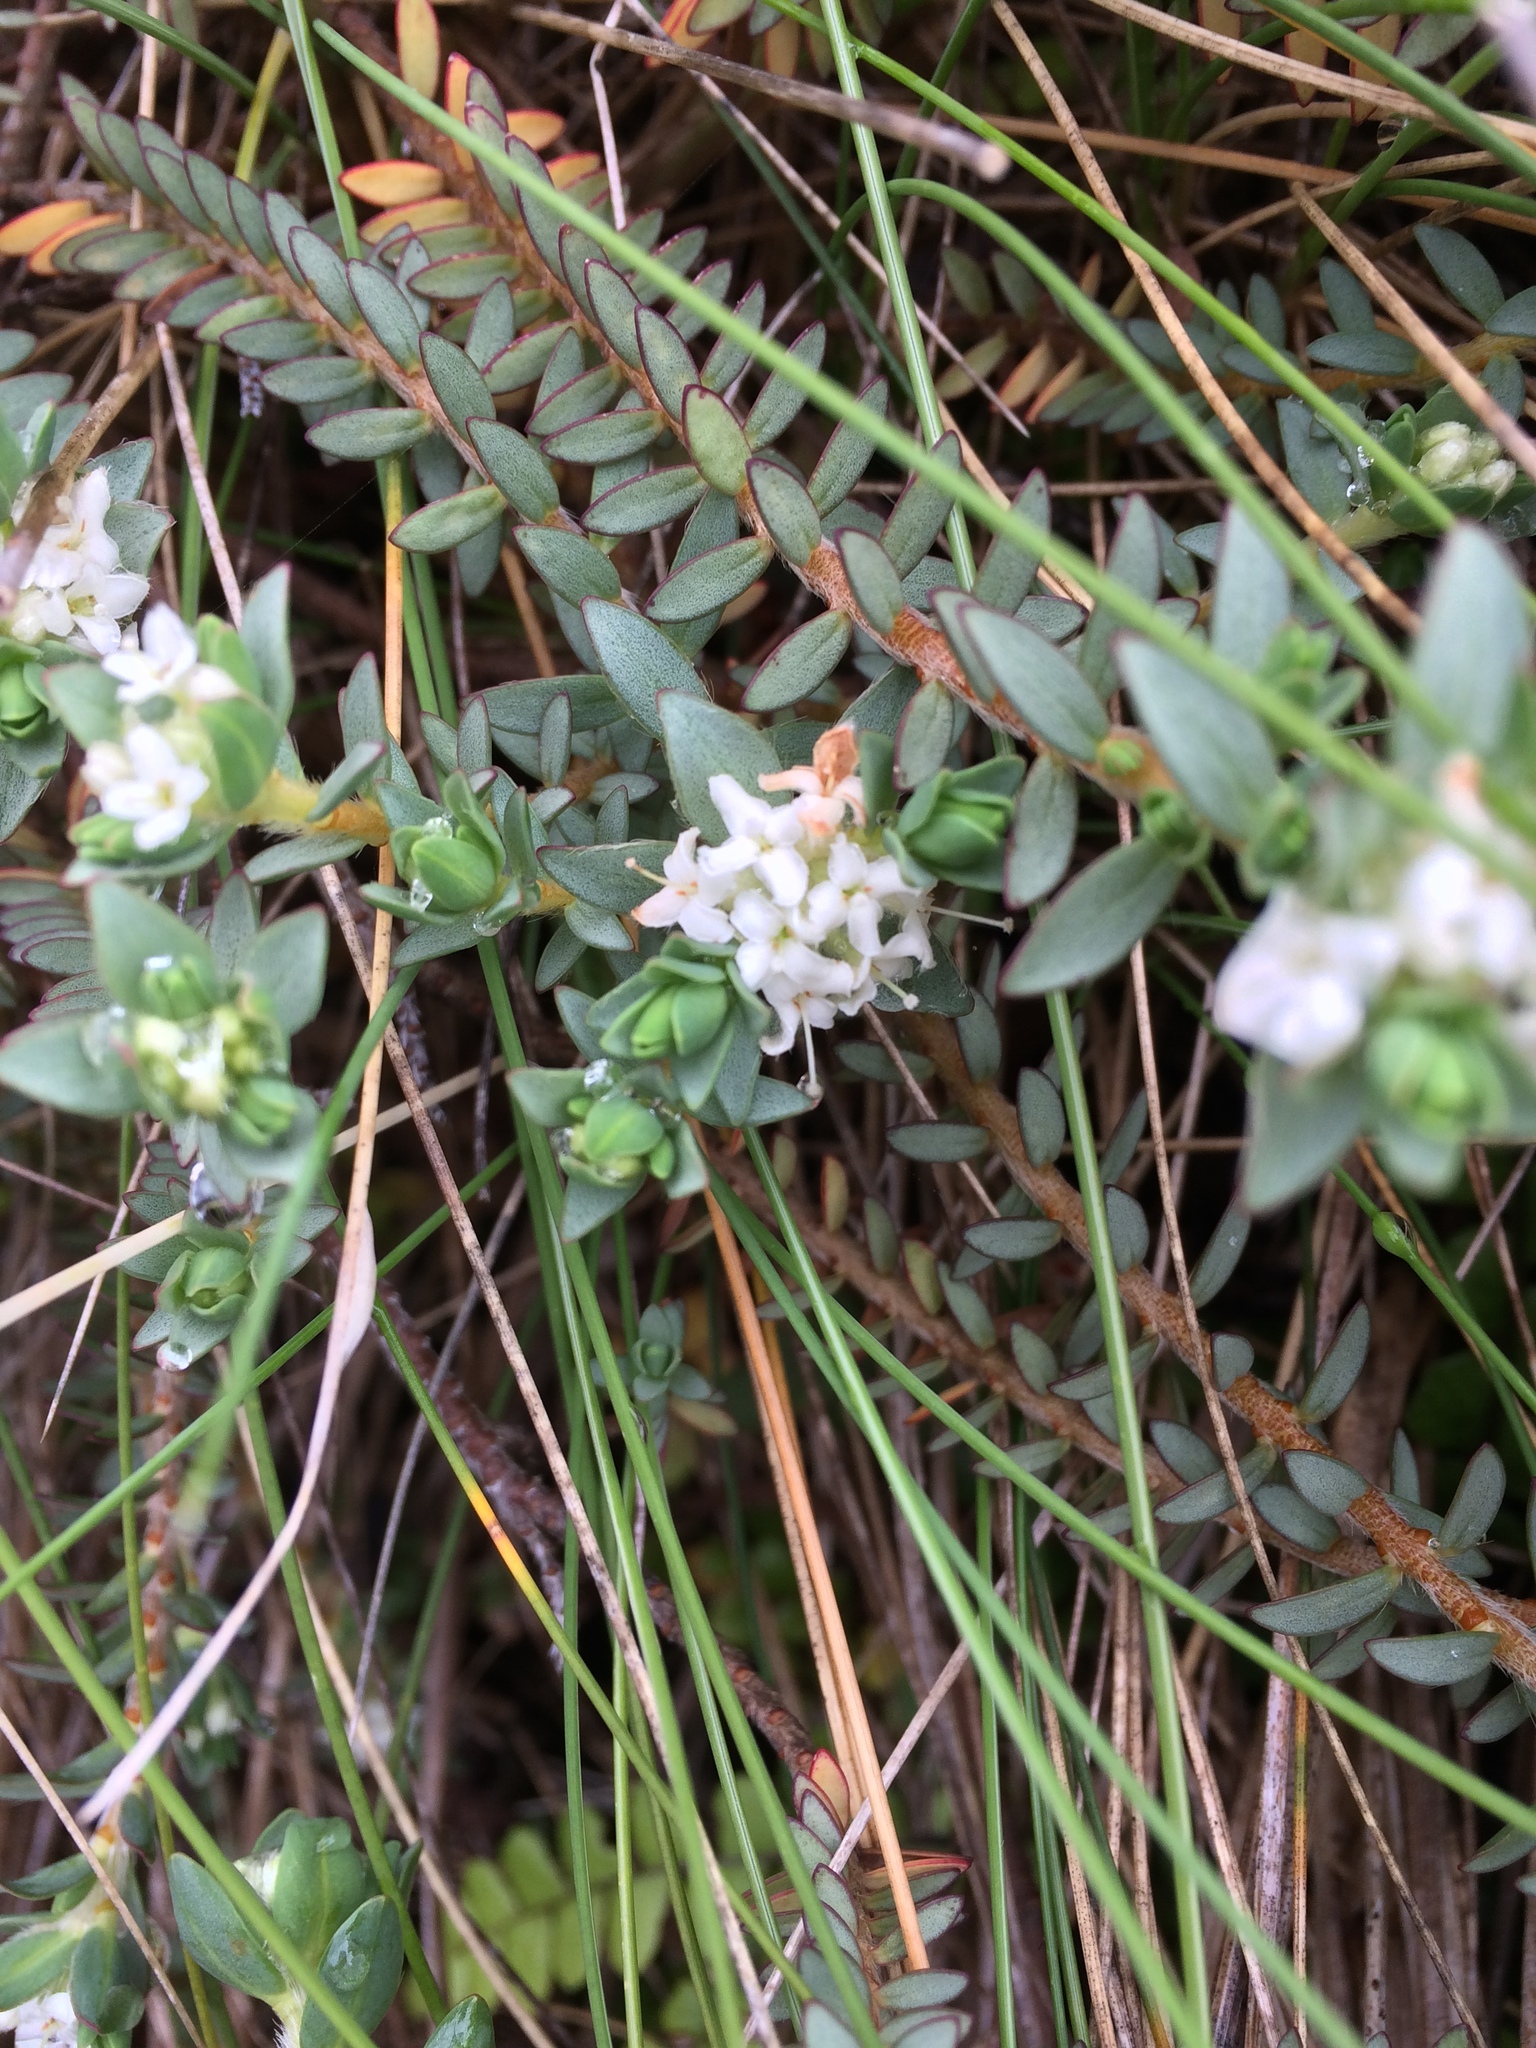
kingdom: Plantae
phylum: Tracheophyta
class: Magnoliopsida
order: Malvales
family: Thymelaeaceae
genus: Pimelea
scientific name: Pimelea prostrata
